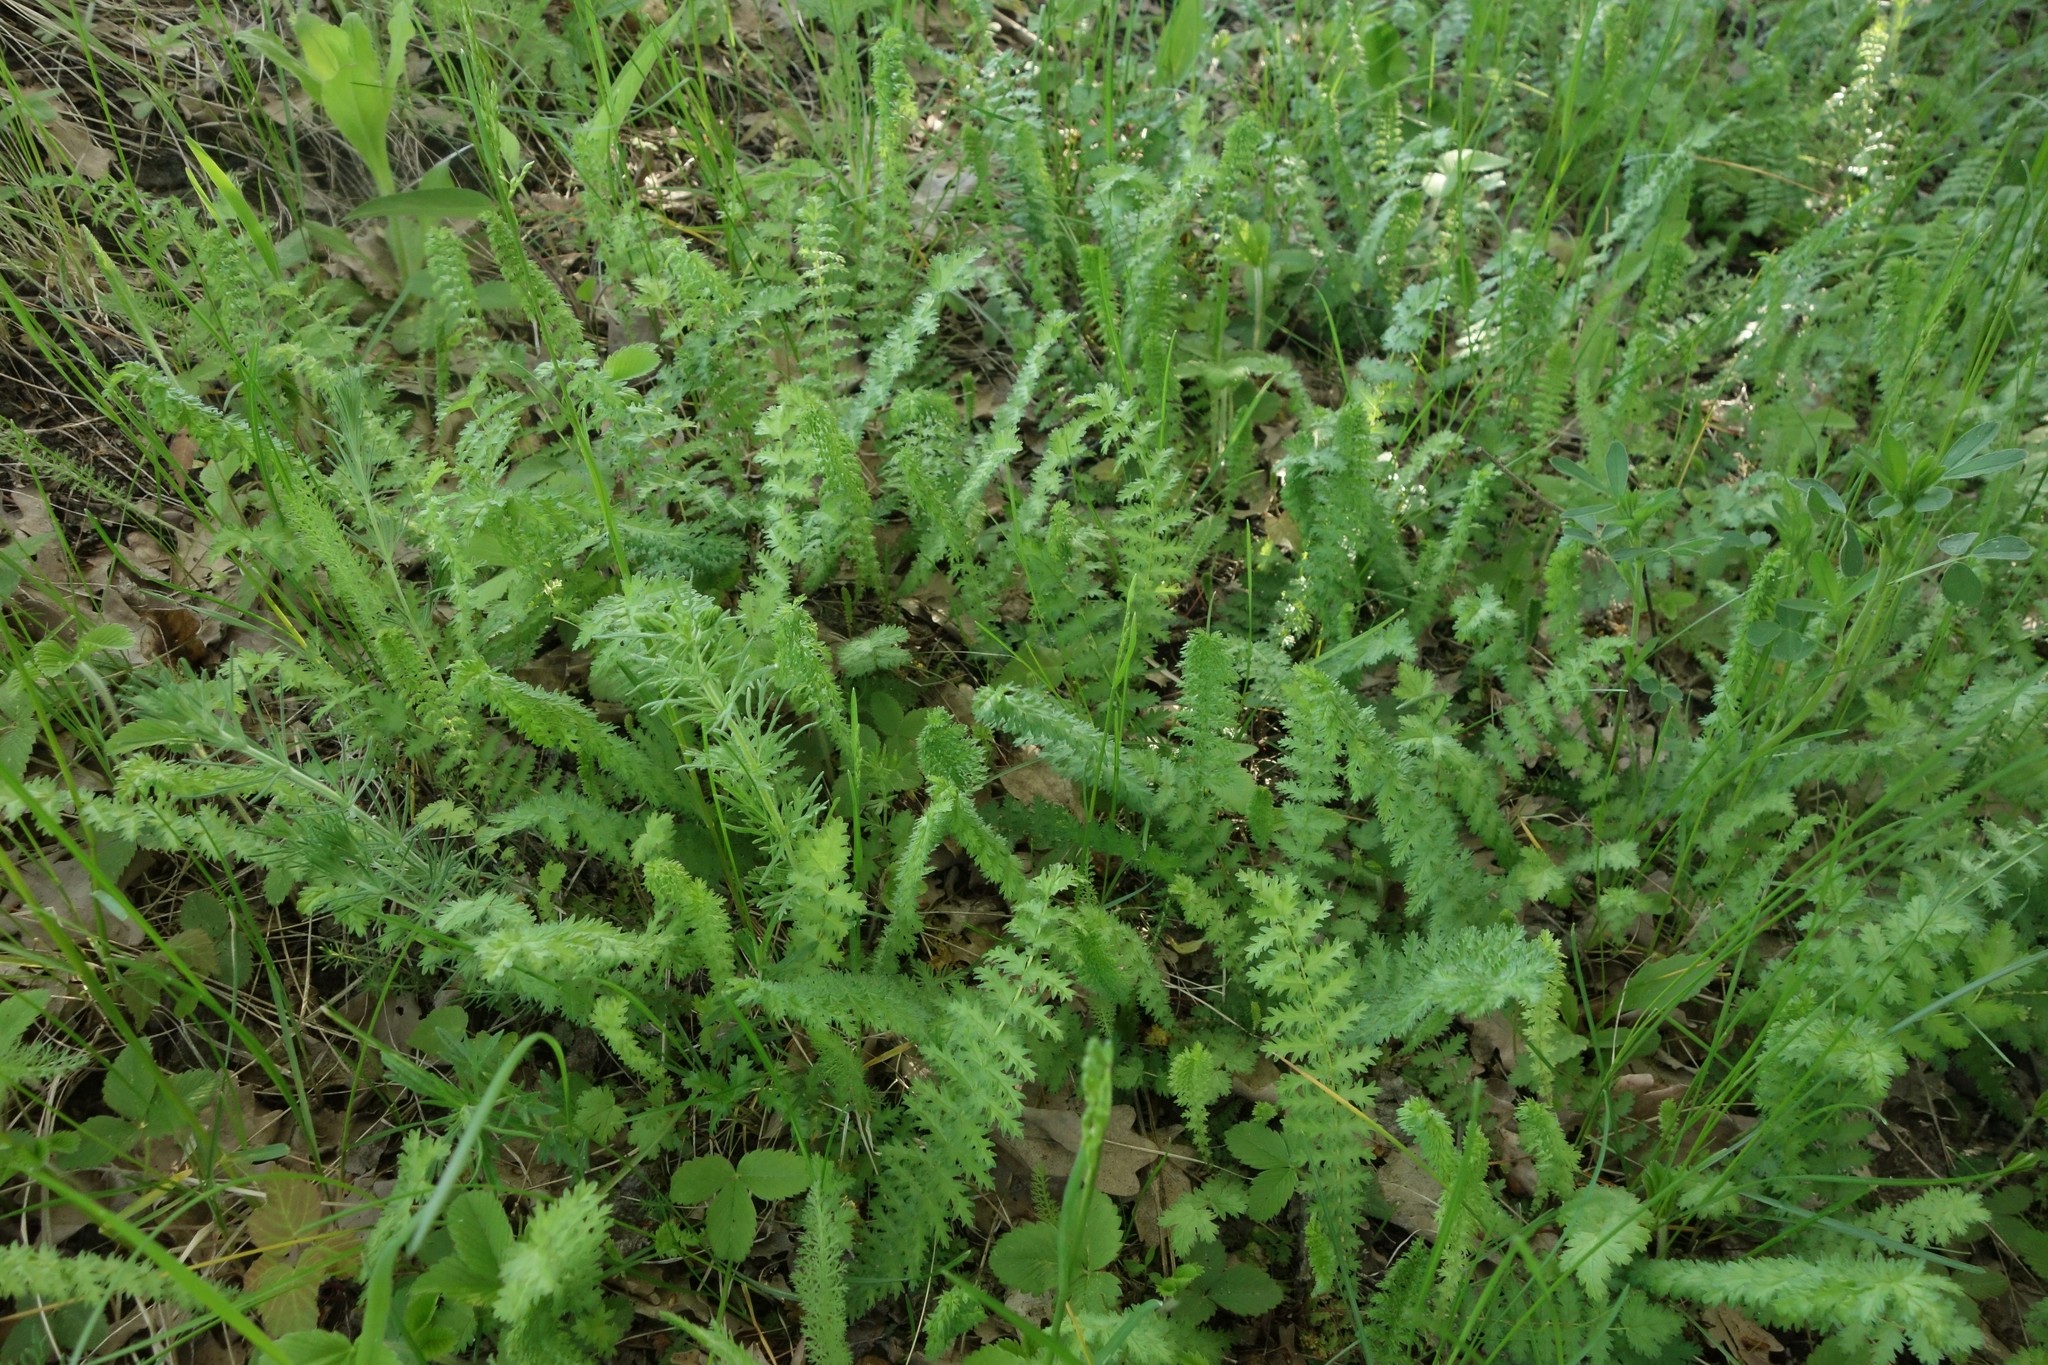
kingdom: Plantae
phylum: Tracheophyta
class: Magnoliopsida
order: Rosales
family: Rosaceae
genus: Filipendula
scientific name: Filipendula vulgaris
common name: Dropwort
